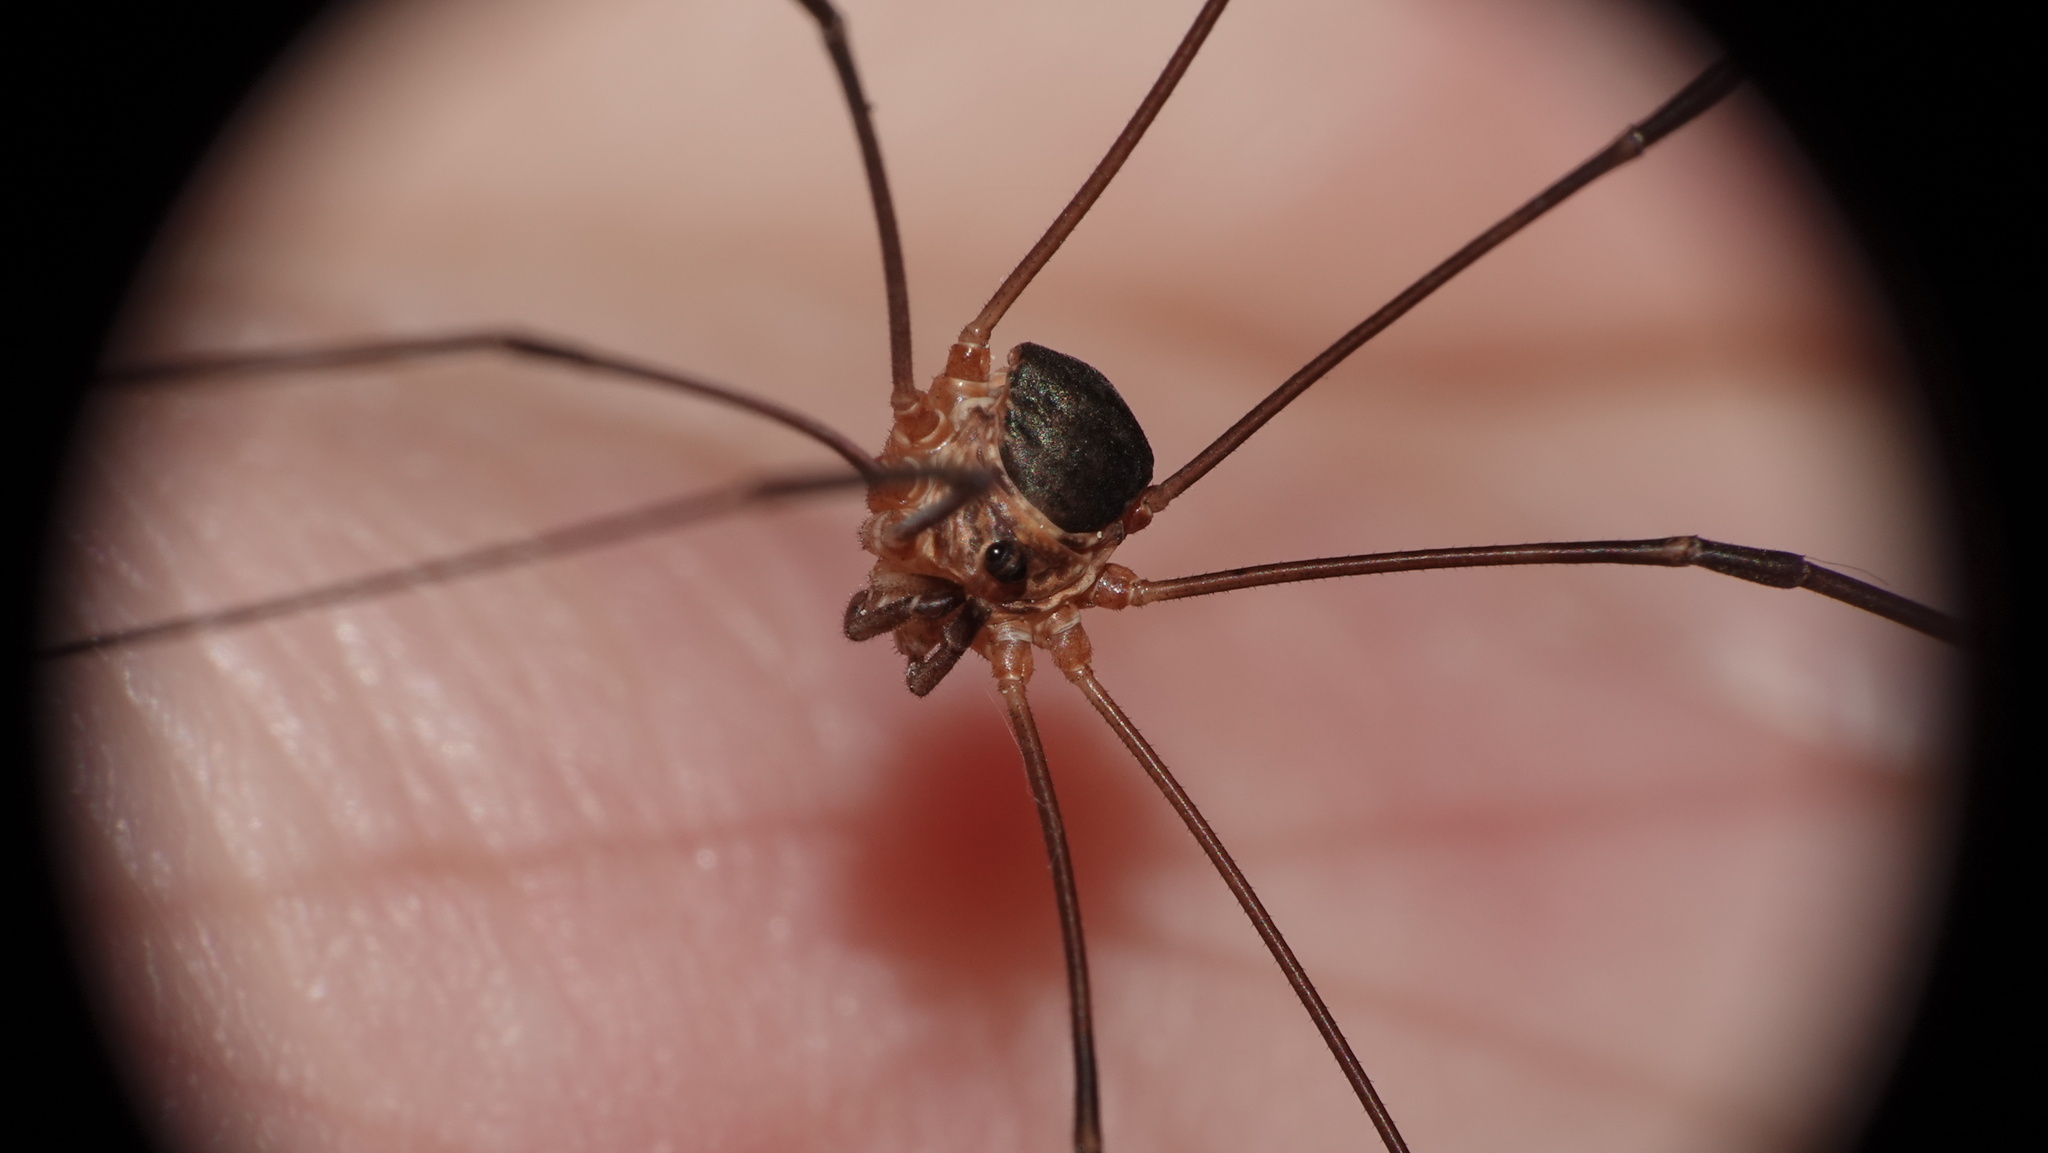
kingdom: Animalia
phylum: Arthropoda
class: Arachnida
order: Opiliones
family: Phalangiidae
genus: Amilenus
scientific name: Amilenus aurantiacus
